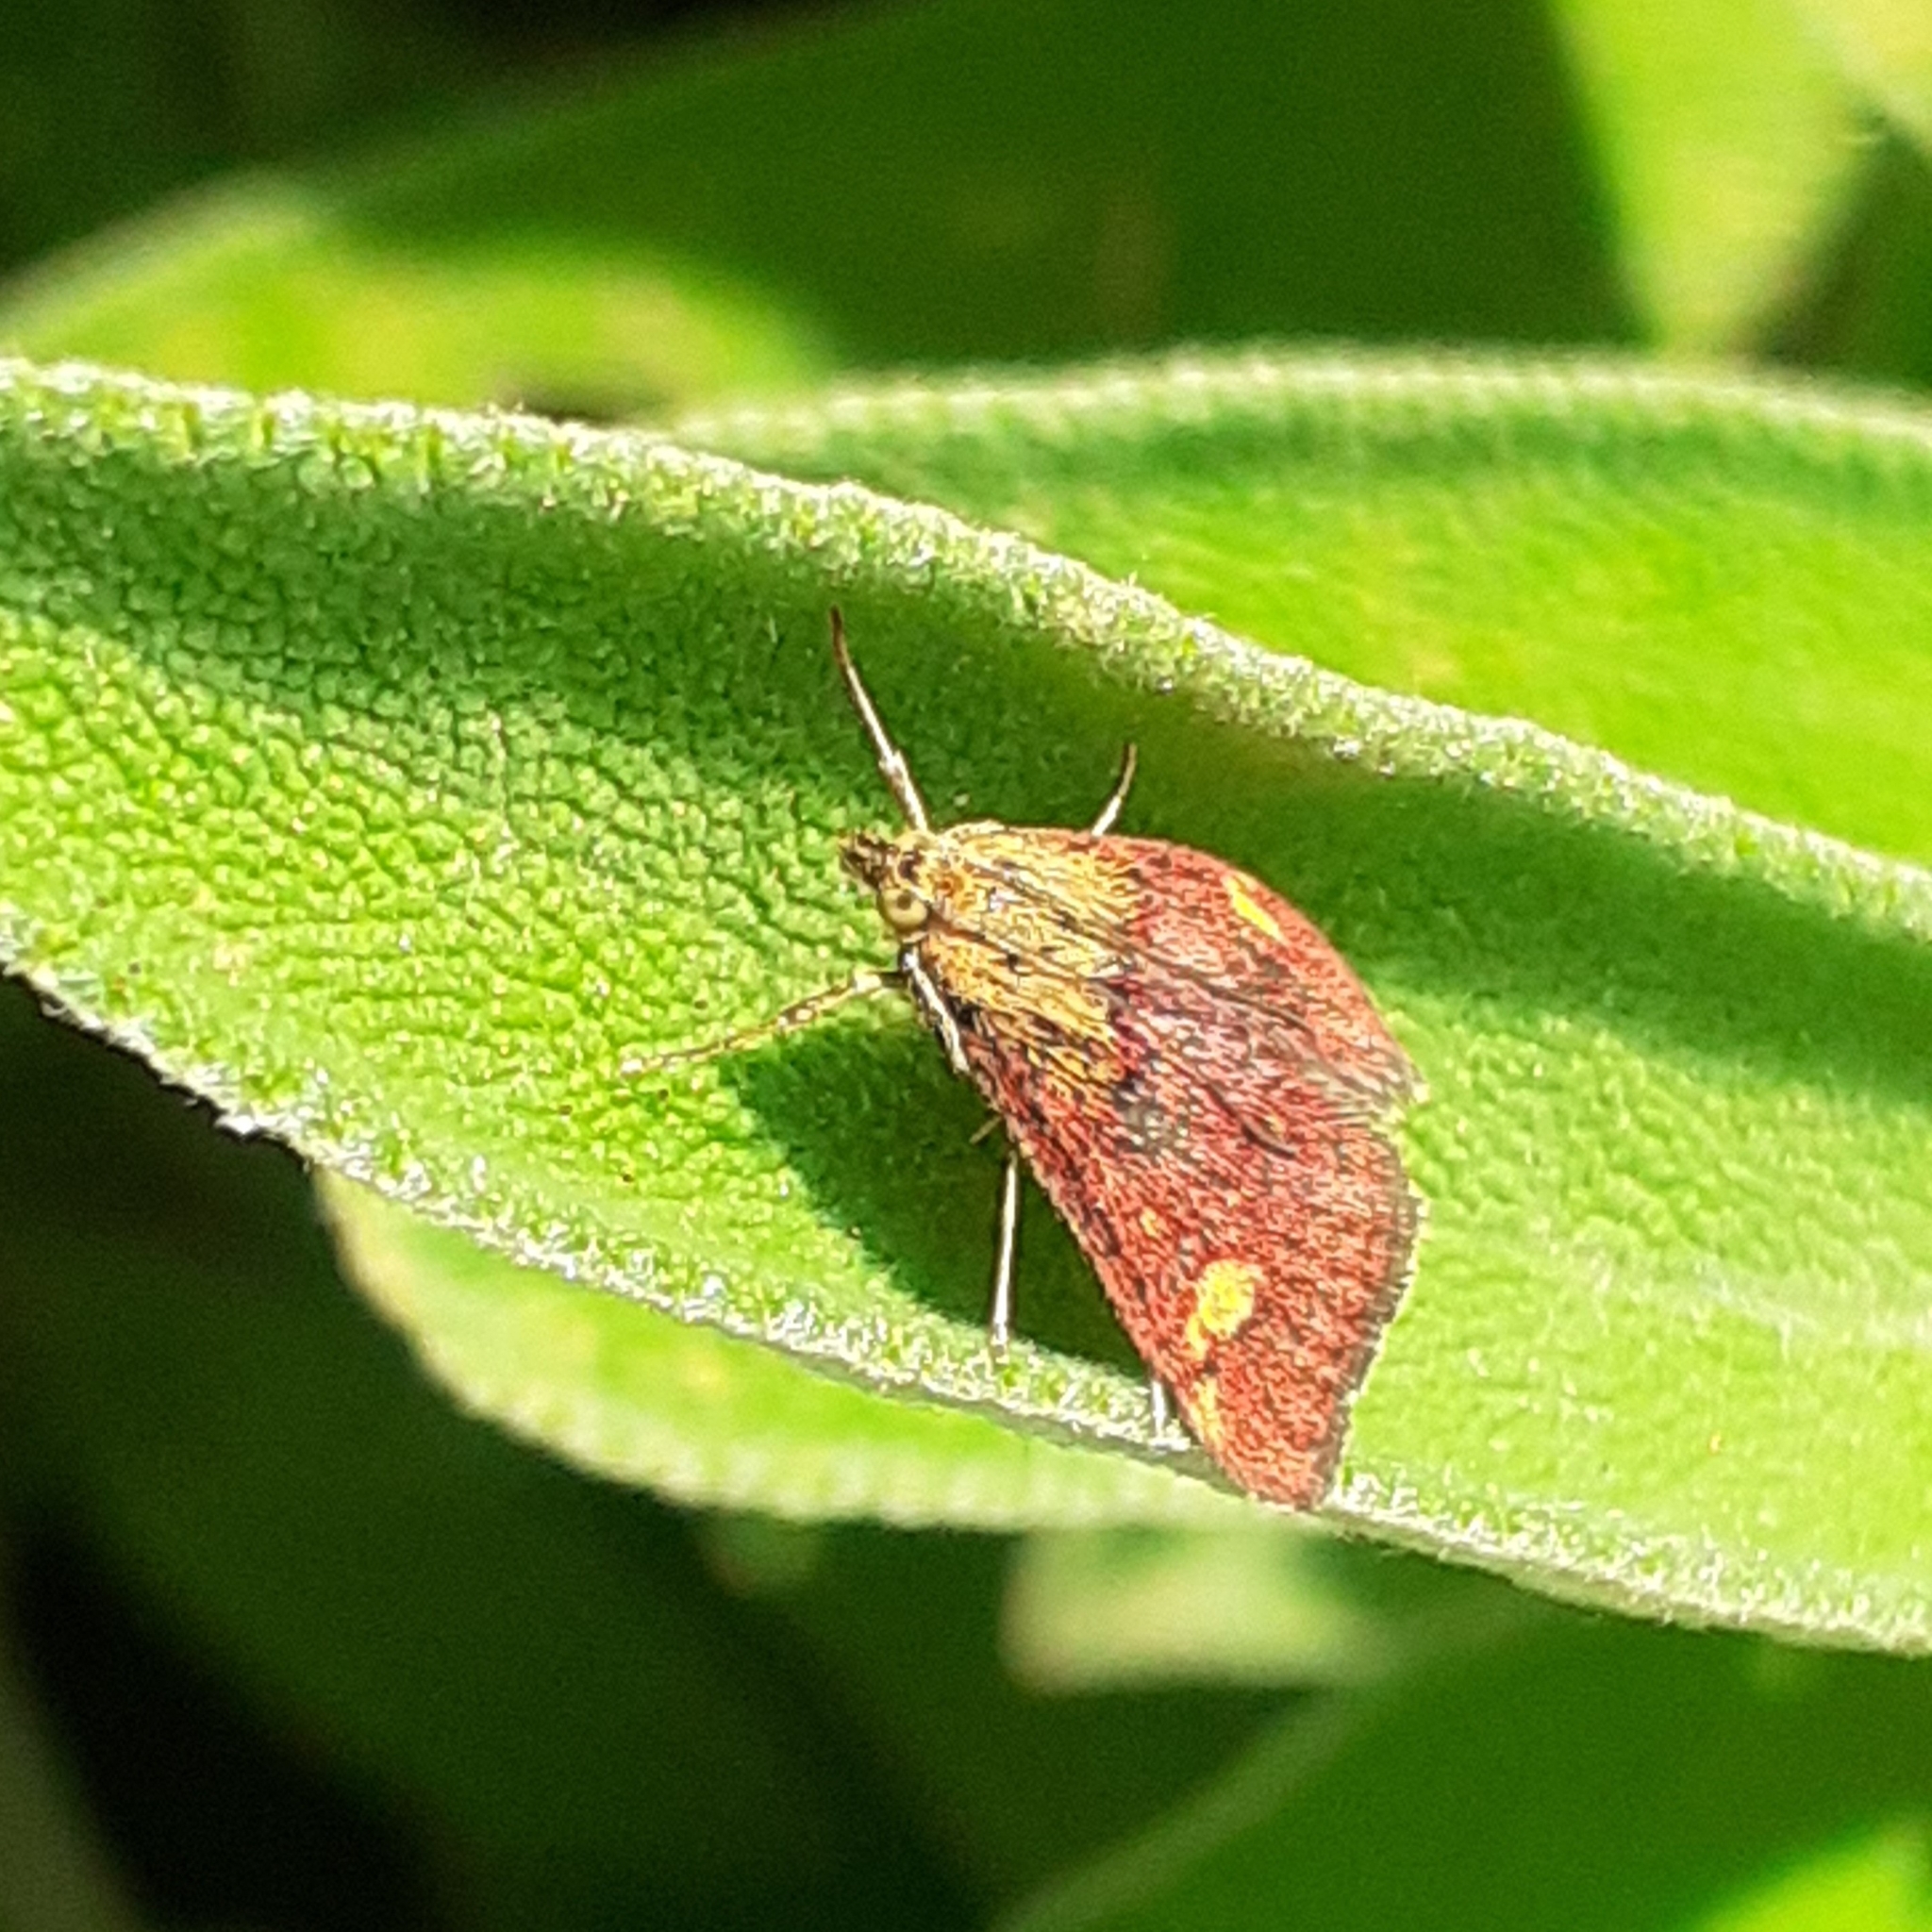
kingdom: Animalia
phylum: Arthropoda
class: Insecta
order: Lepidoptera
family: Crambidae
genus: Pyrausta
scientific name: Pyrausta aurata
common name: Small purple & gold
